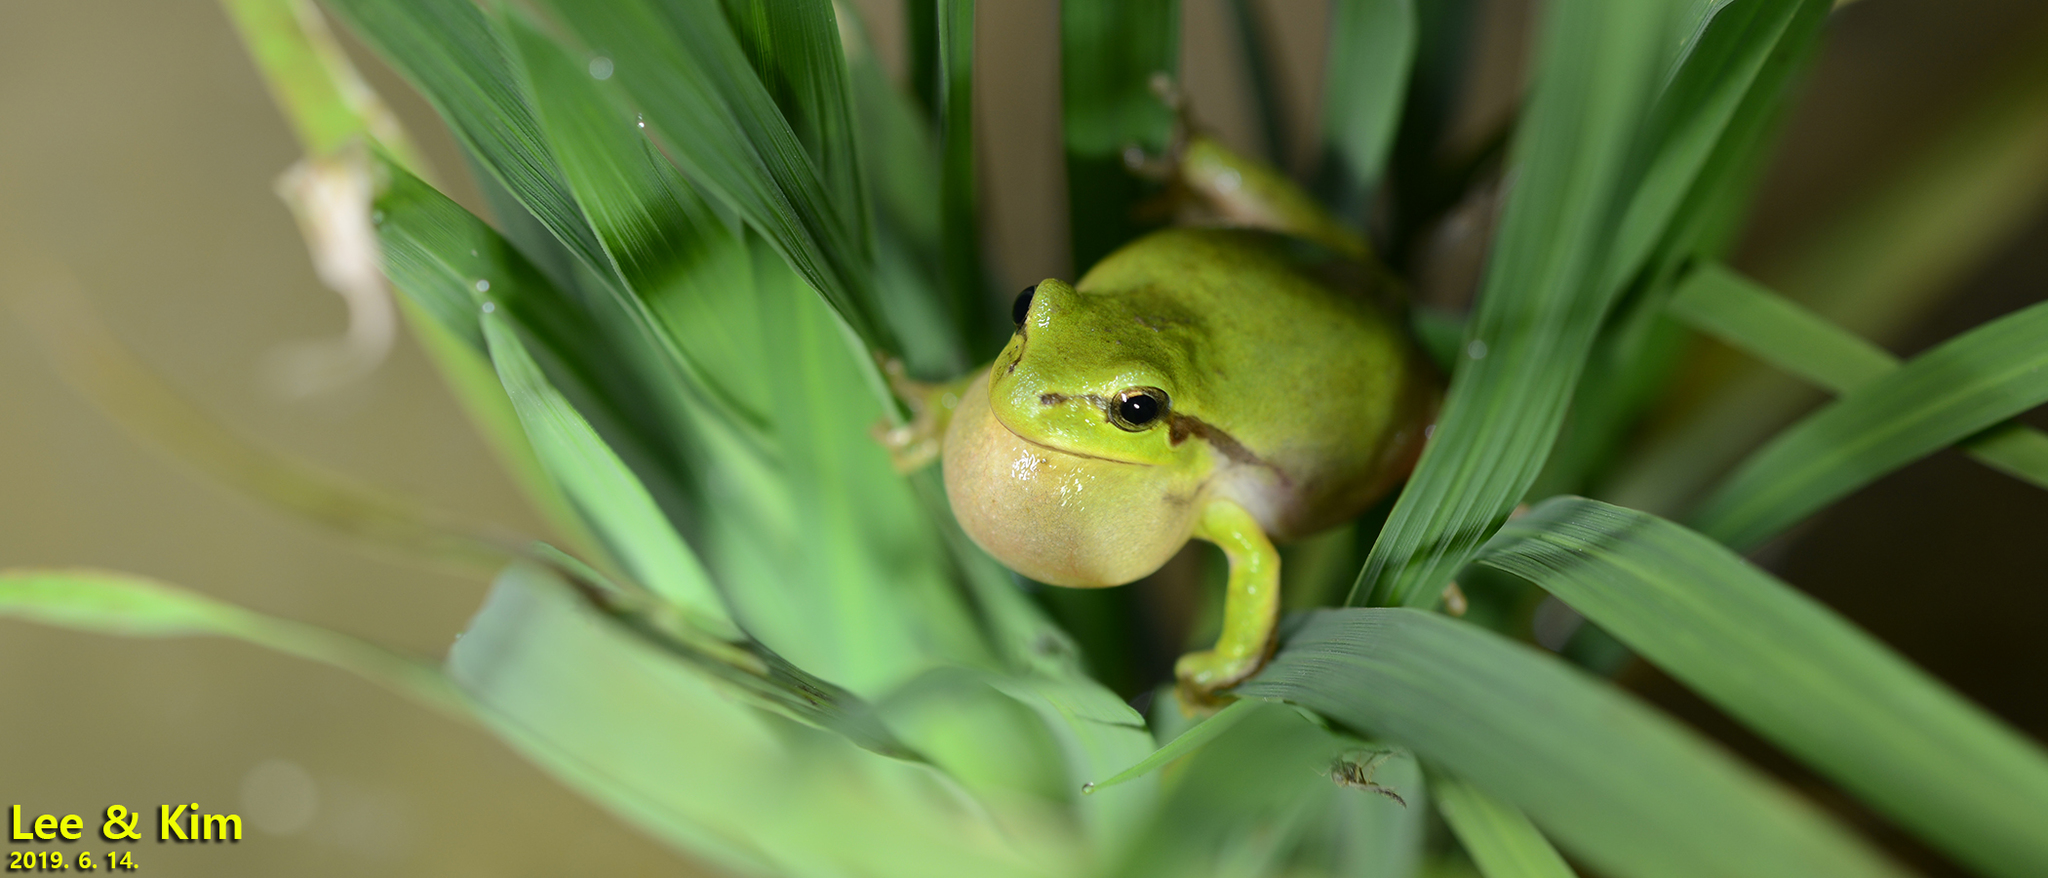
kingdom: Animalia
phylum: Chordata
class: Amphibia
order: Anura
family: Hylidae
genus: Dryophytes
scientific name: Dryophytes immaculatus
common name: North china treefrog
